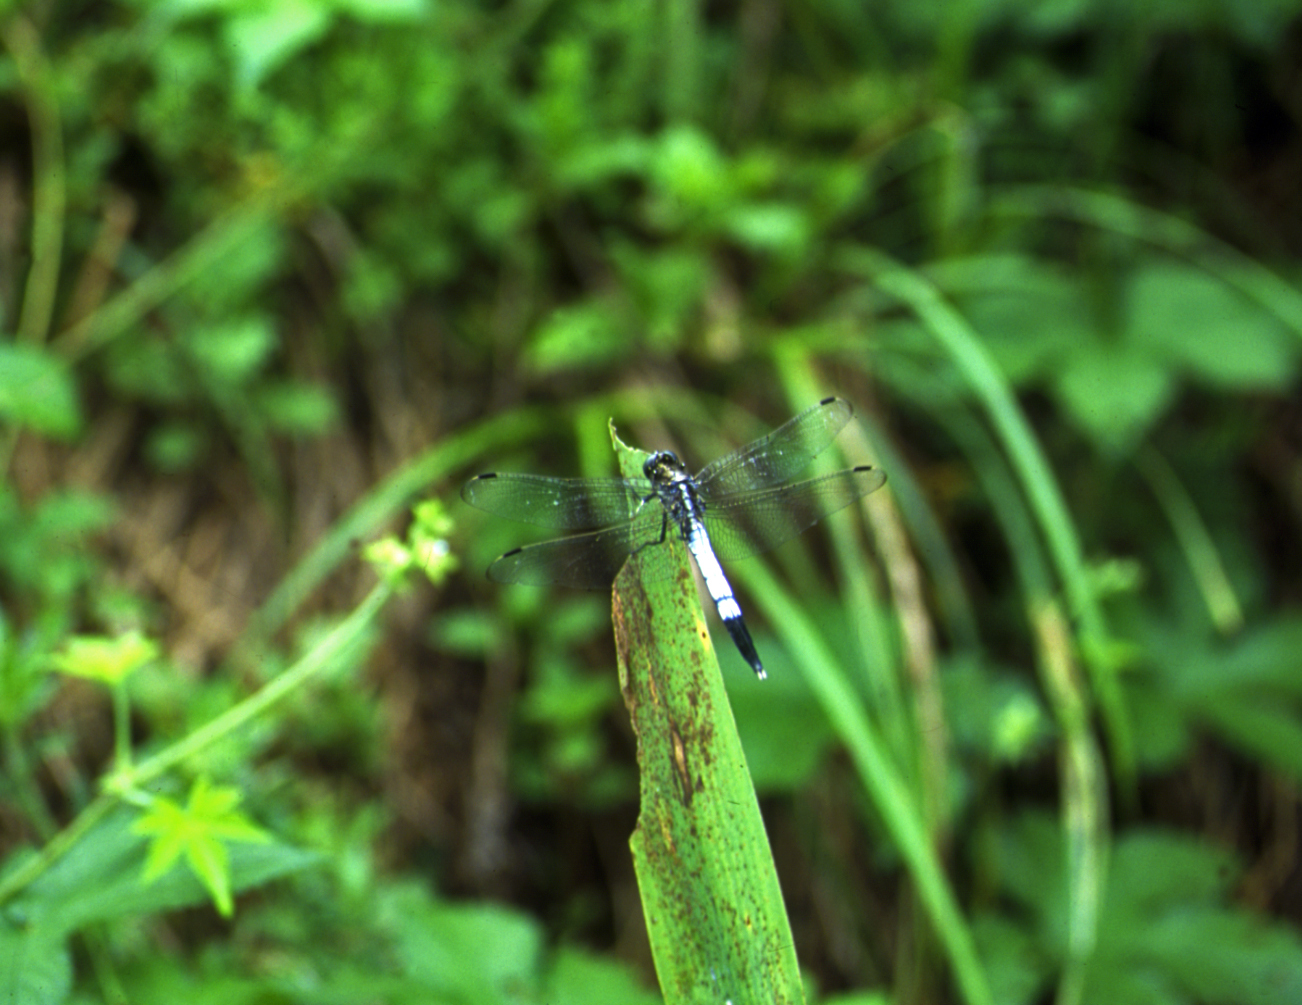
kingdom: Animalia
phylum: Arthropoda
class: Insecta
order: Odonata
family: Libellulidae
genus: Orthetrum
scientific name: Orthetrum albistylum
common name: White-tailed skimmer
